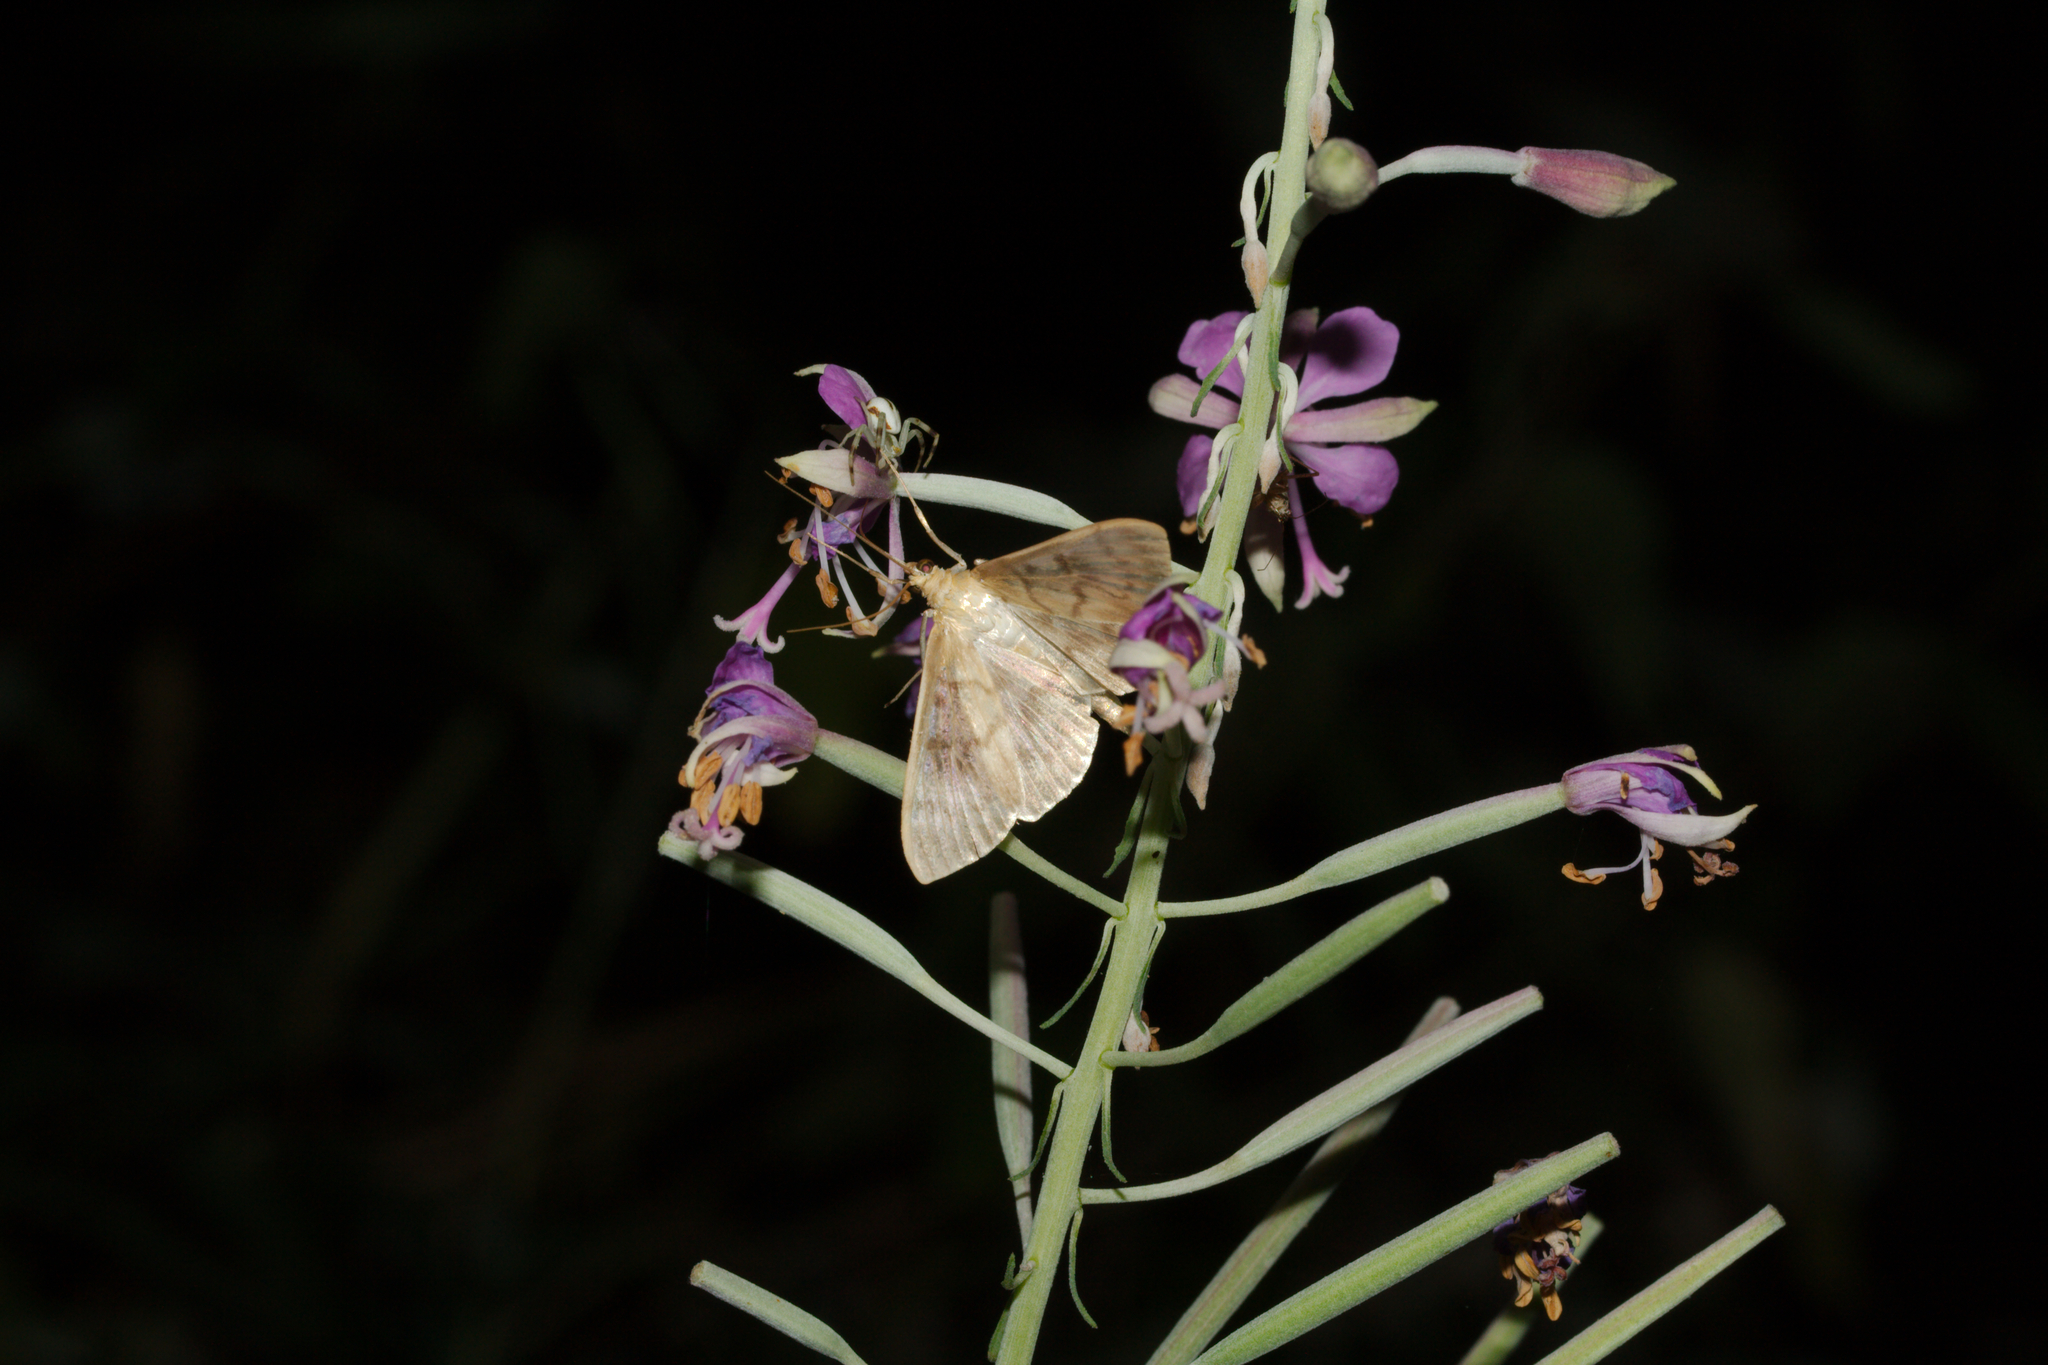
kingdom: Animalia
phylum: Arthropoda
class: Insecta
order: Lepidoptera
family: Crambidae
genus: Patania
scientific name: Patania ruralis
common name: Mother of pearl
